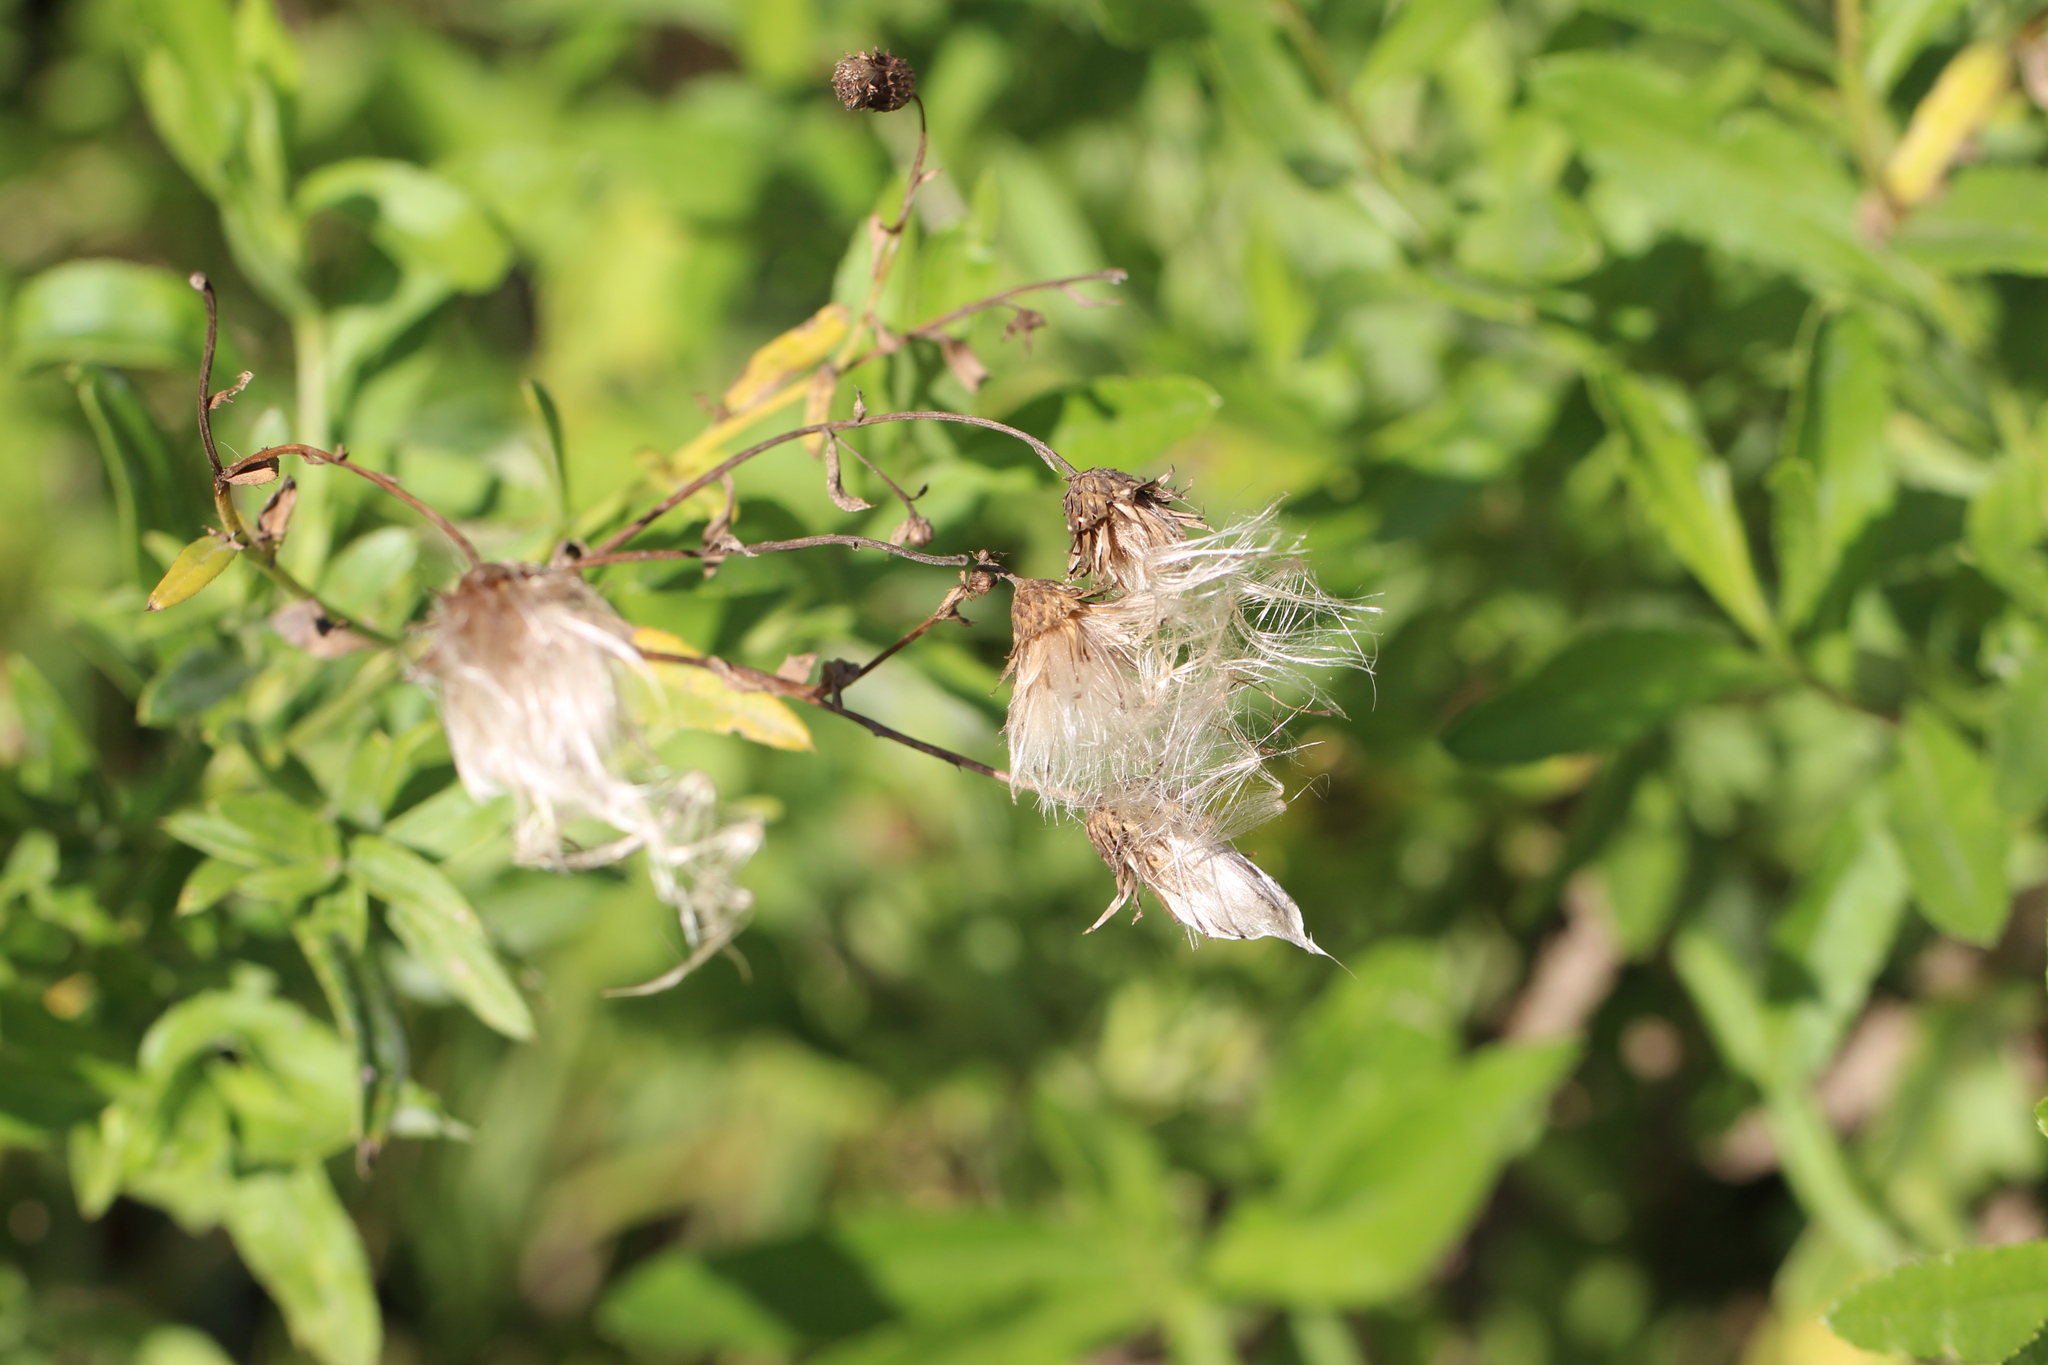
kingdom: Plantae
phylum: Tracheophyta
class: Magnoliopsida
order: Asterales
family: Asteraceae
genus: Cirsium
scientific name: Cirsium arvense
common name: Creeping thistle
